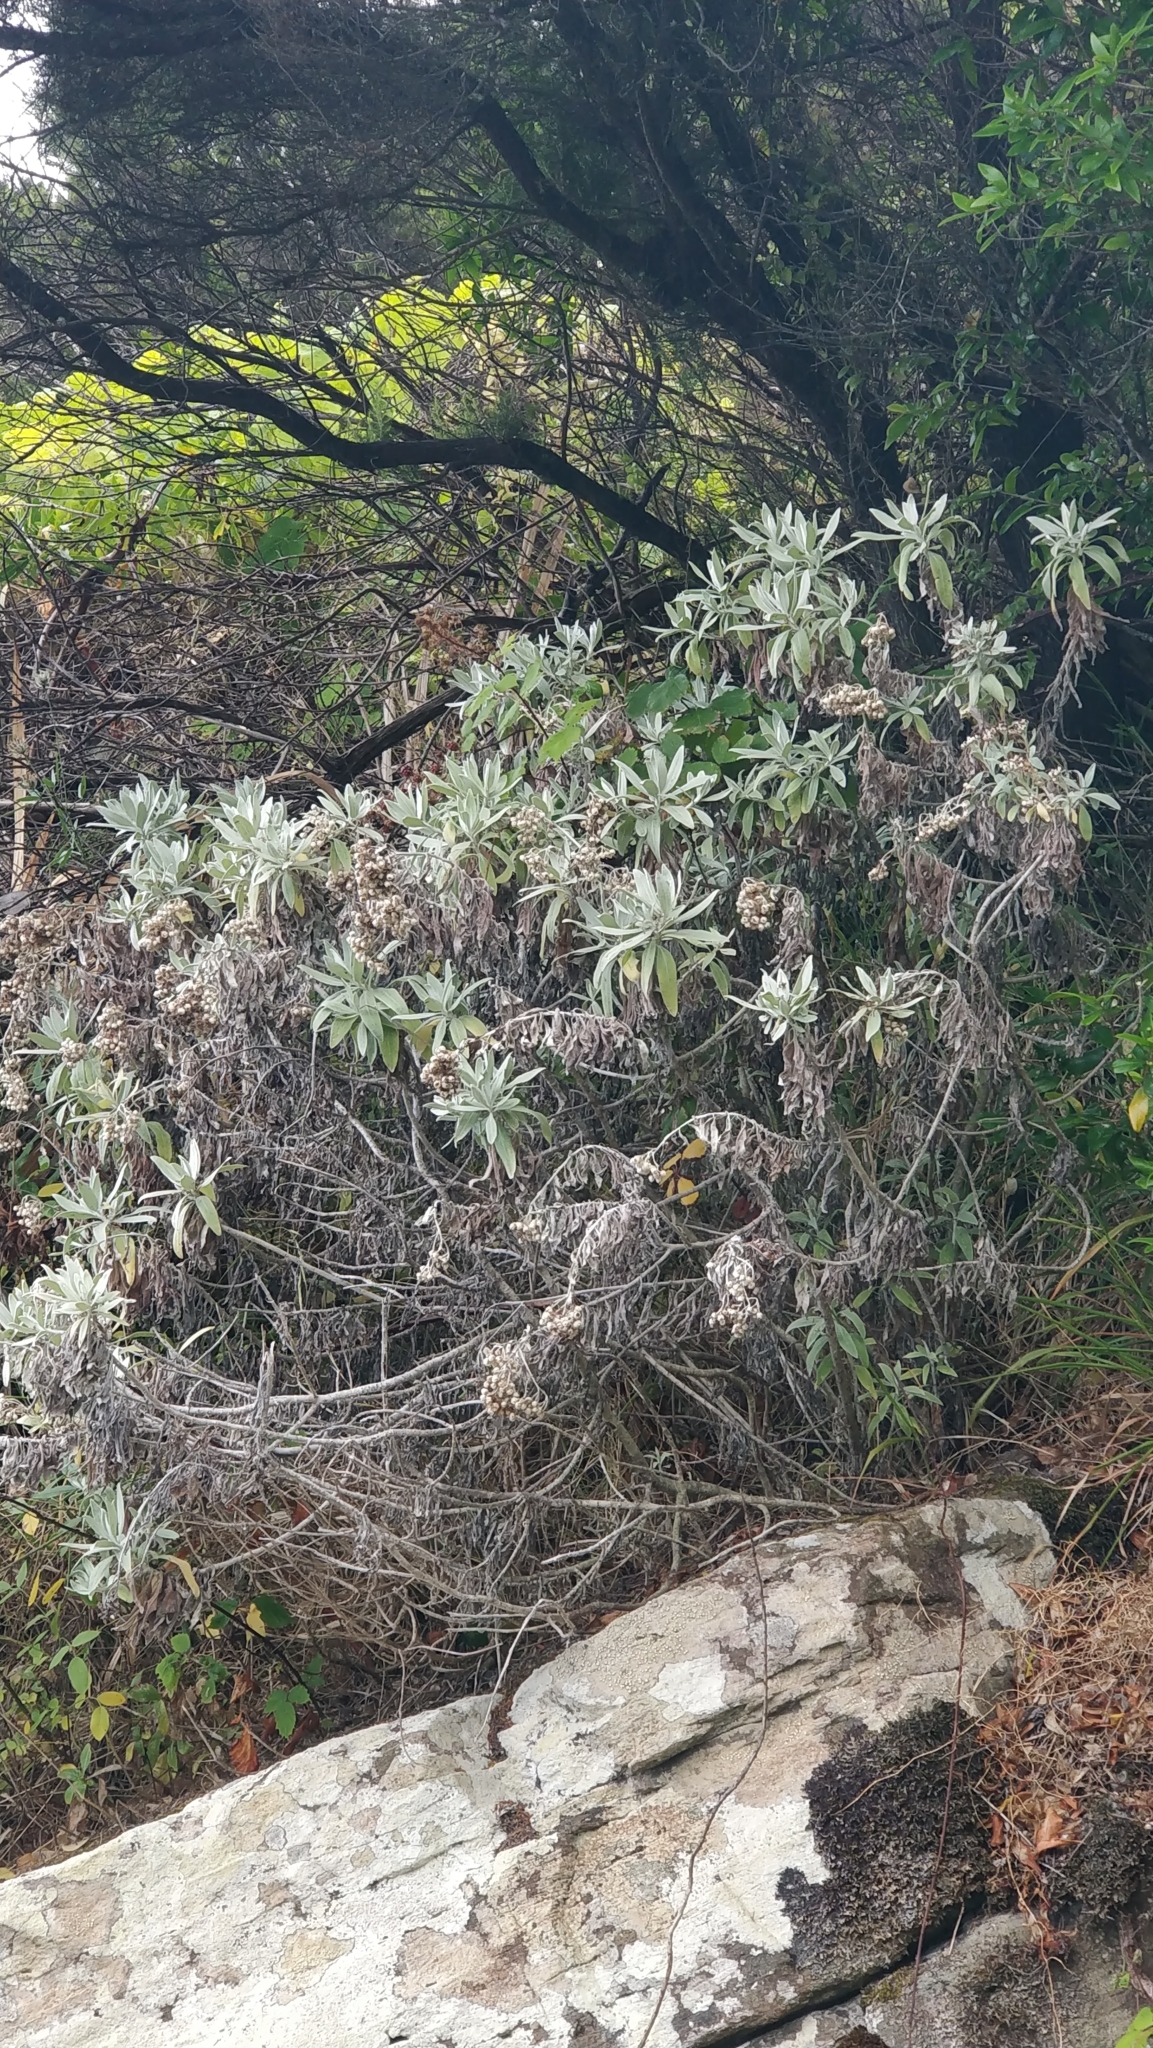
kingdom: Plantae
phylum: Tracheophyta
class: Magnoliopsida
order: Asterales
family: Asteraceae
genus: Helichrysum
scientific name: Helichrysum melaleucum
